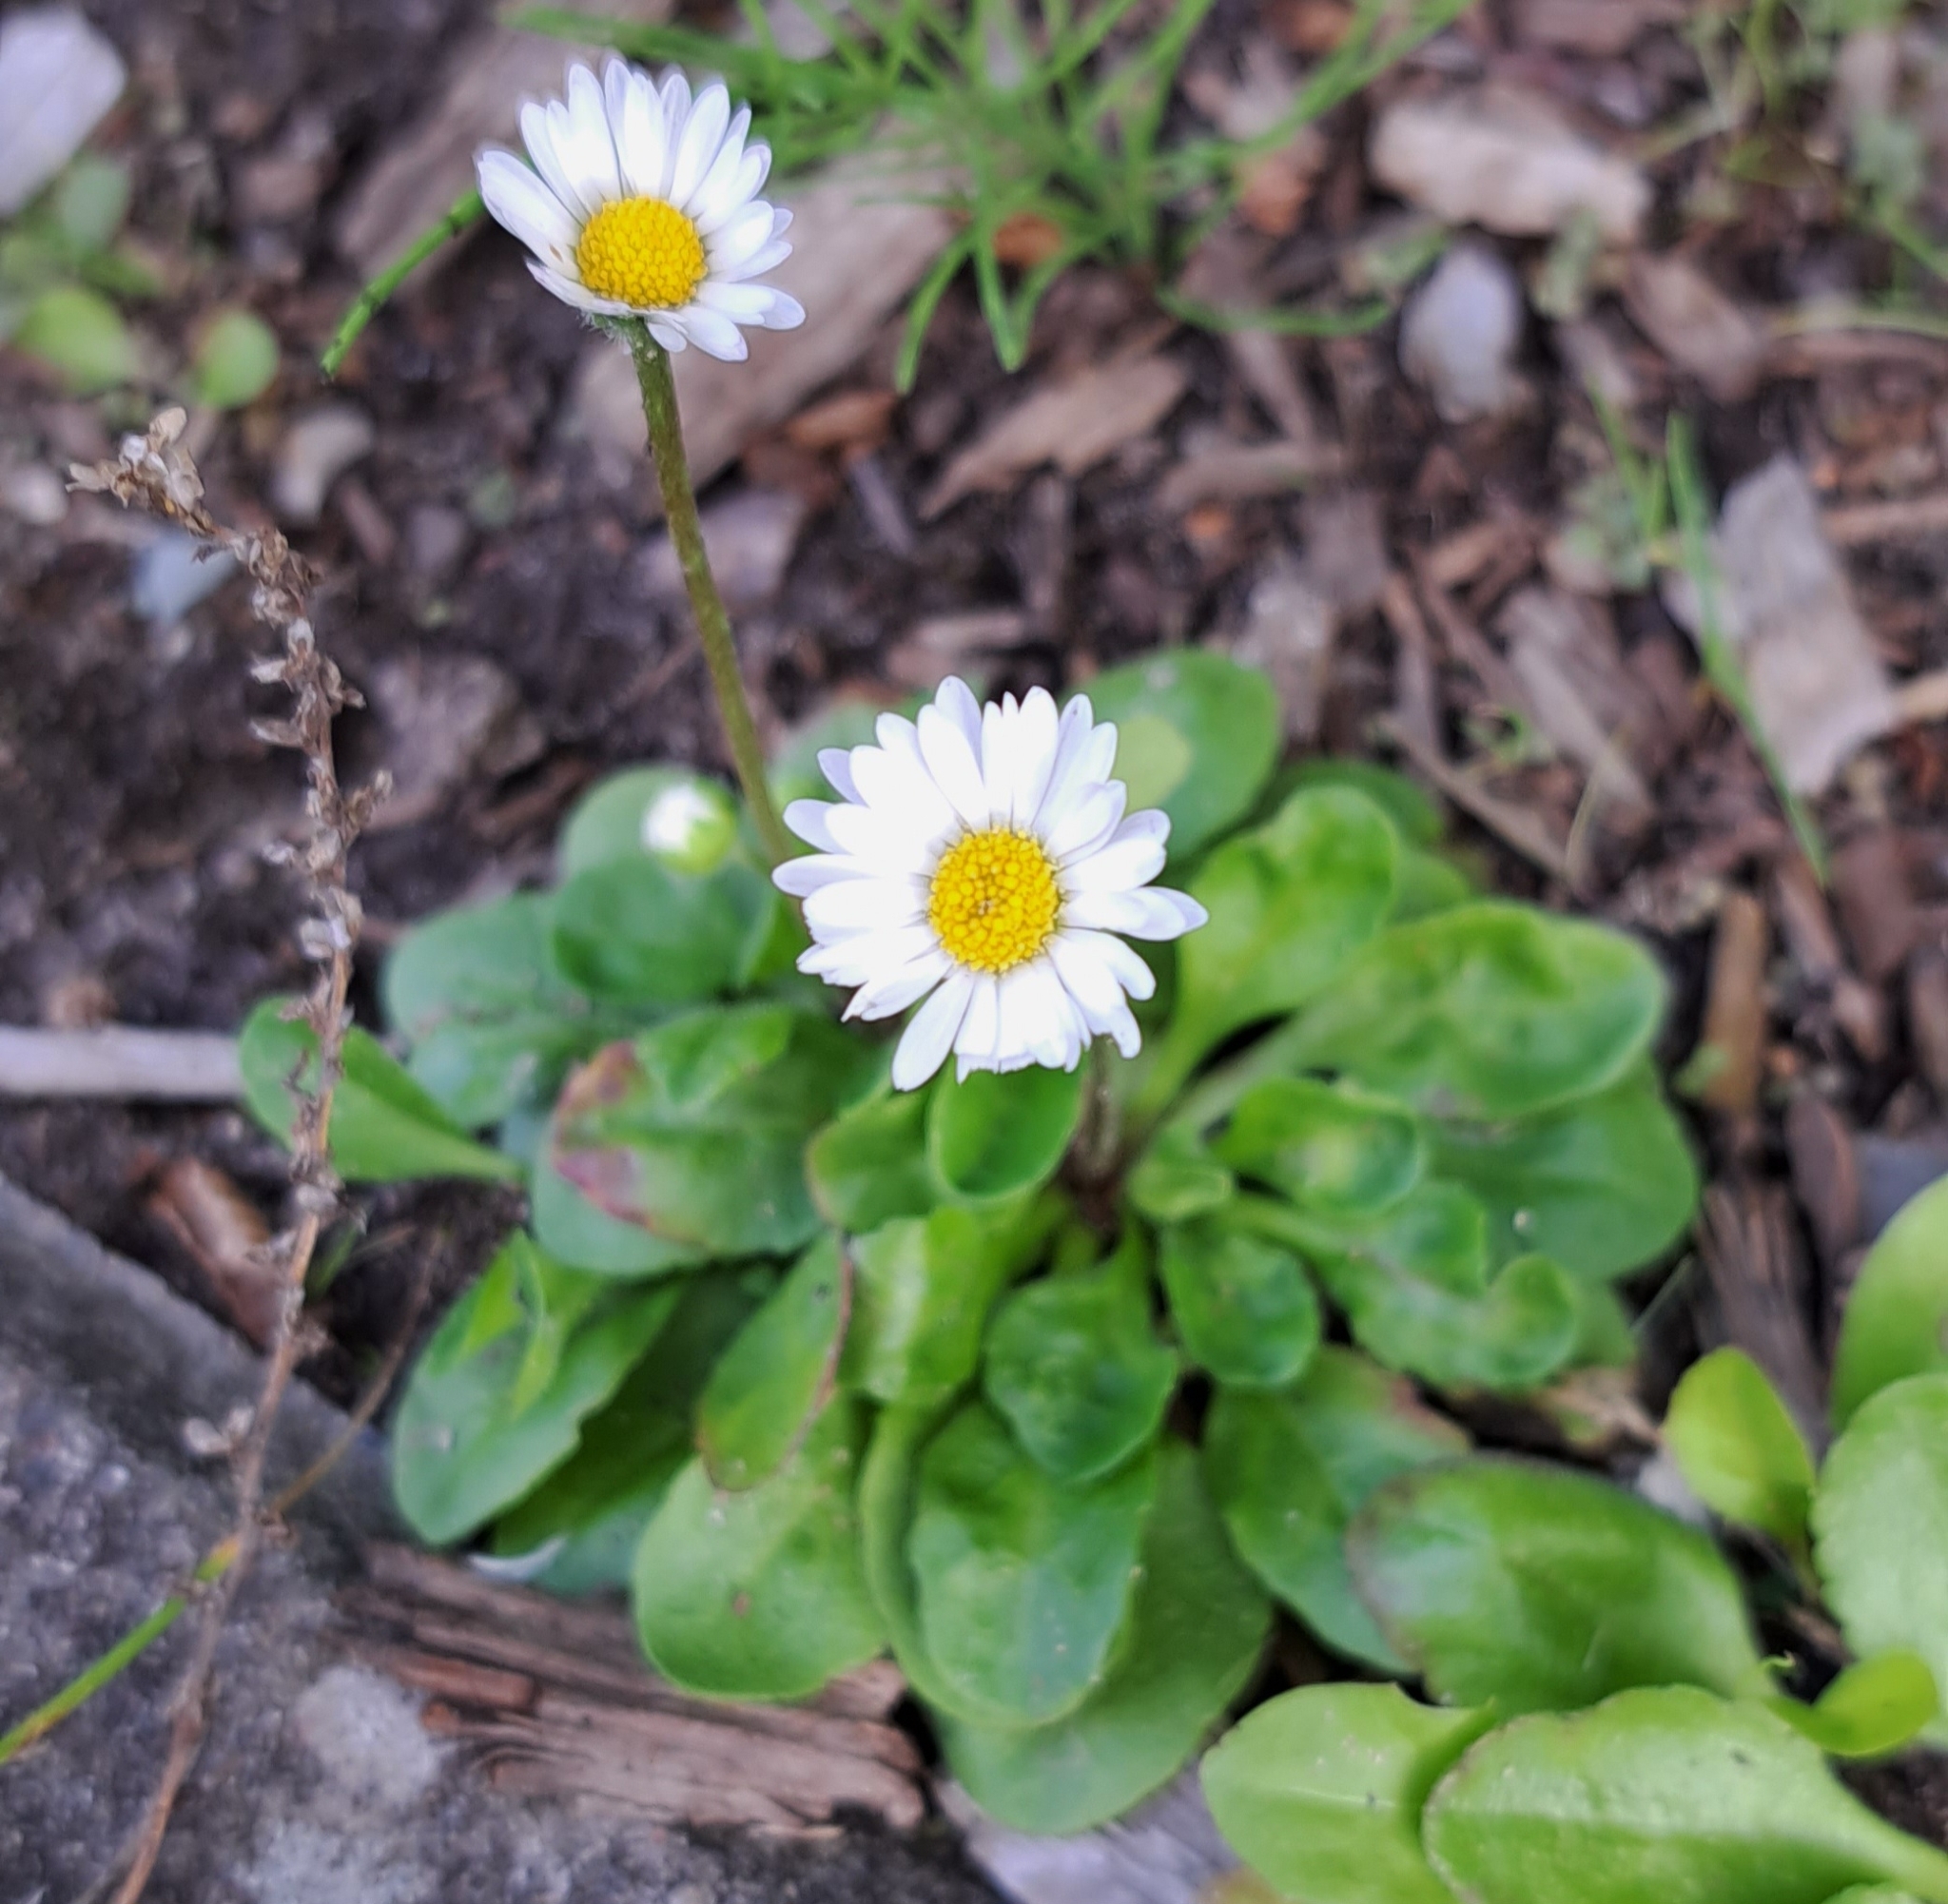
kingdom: Plantae
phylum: Tracheophyta
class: Magnoliopsida
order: Asterales
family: Asteraceae
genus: Bellis
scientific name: Bellis perennis
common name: Lawndaisy
